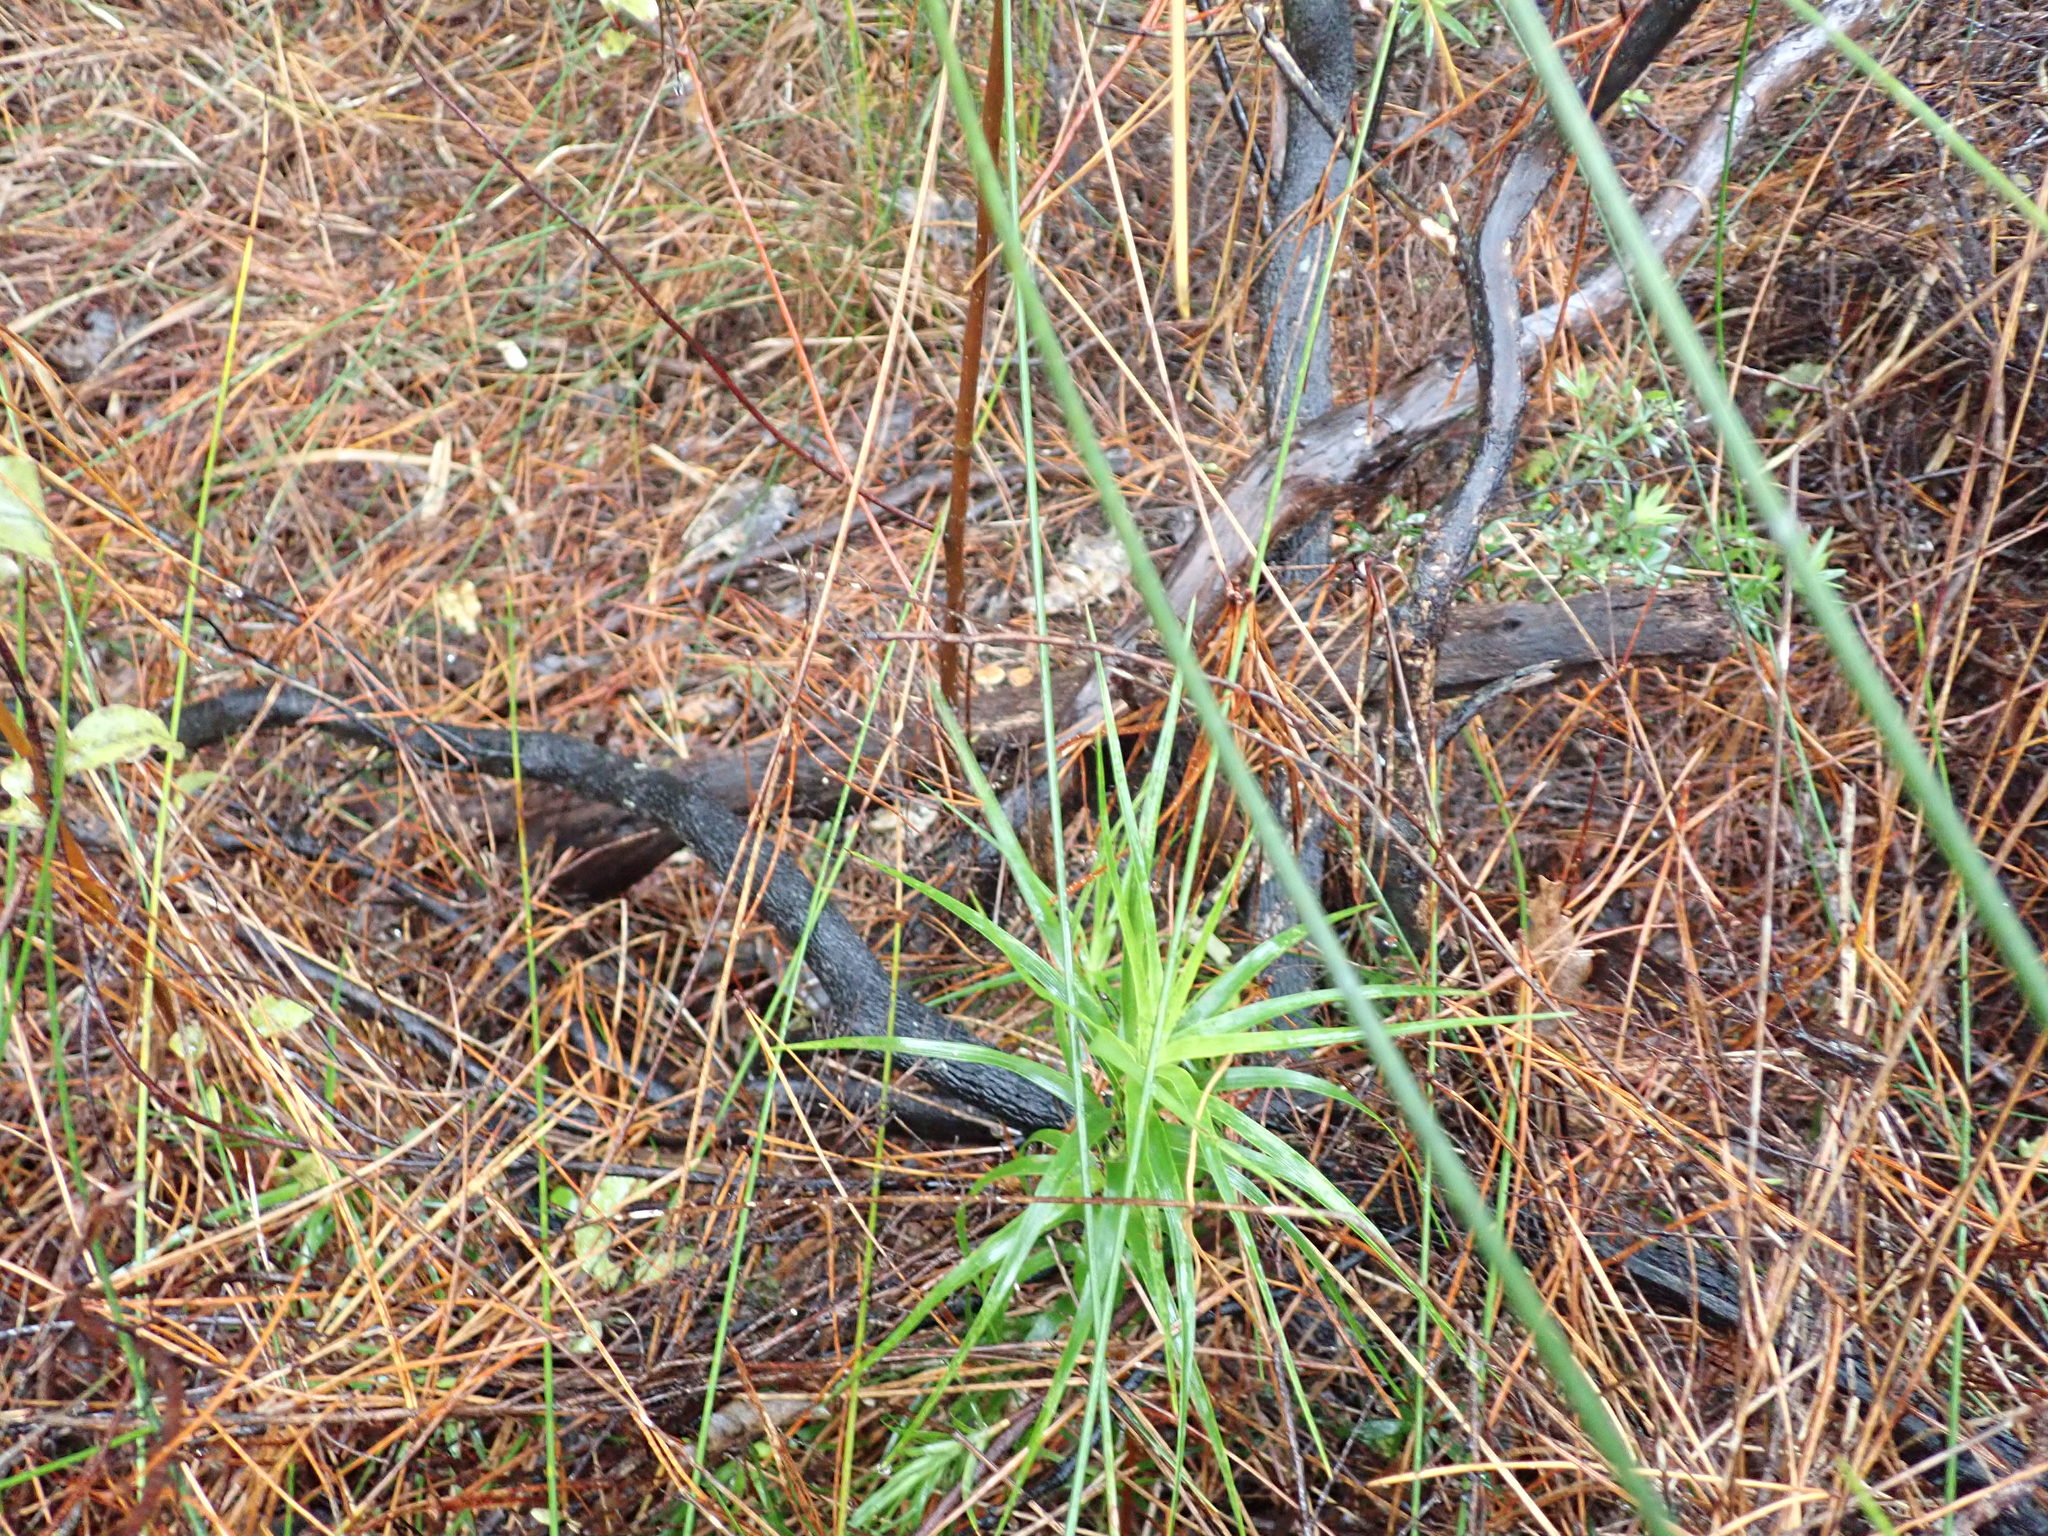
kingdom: Plantae
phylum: Tracheophyta
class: Magnoliopsida
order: Ericales
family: Ericaceae
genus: Dracophyllum
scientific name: Dracophyllum sinclairii
